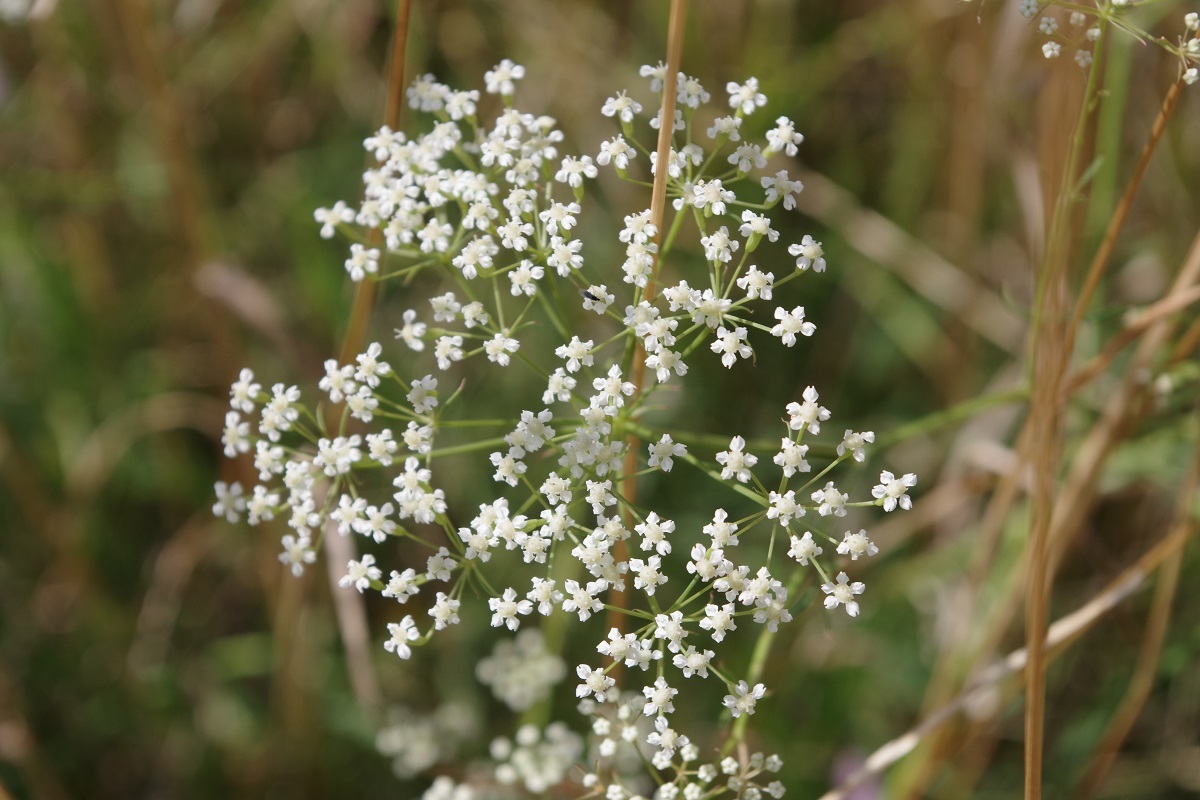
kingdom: Plantae
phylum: Tracheophyta
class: Magnoliopsida
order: Apiales
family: Apiaceae
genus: Falcaria
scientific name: Falcaria vulgaris
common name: Longleaf
